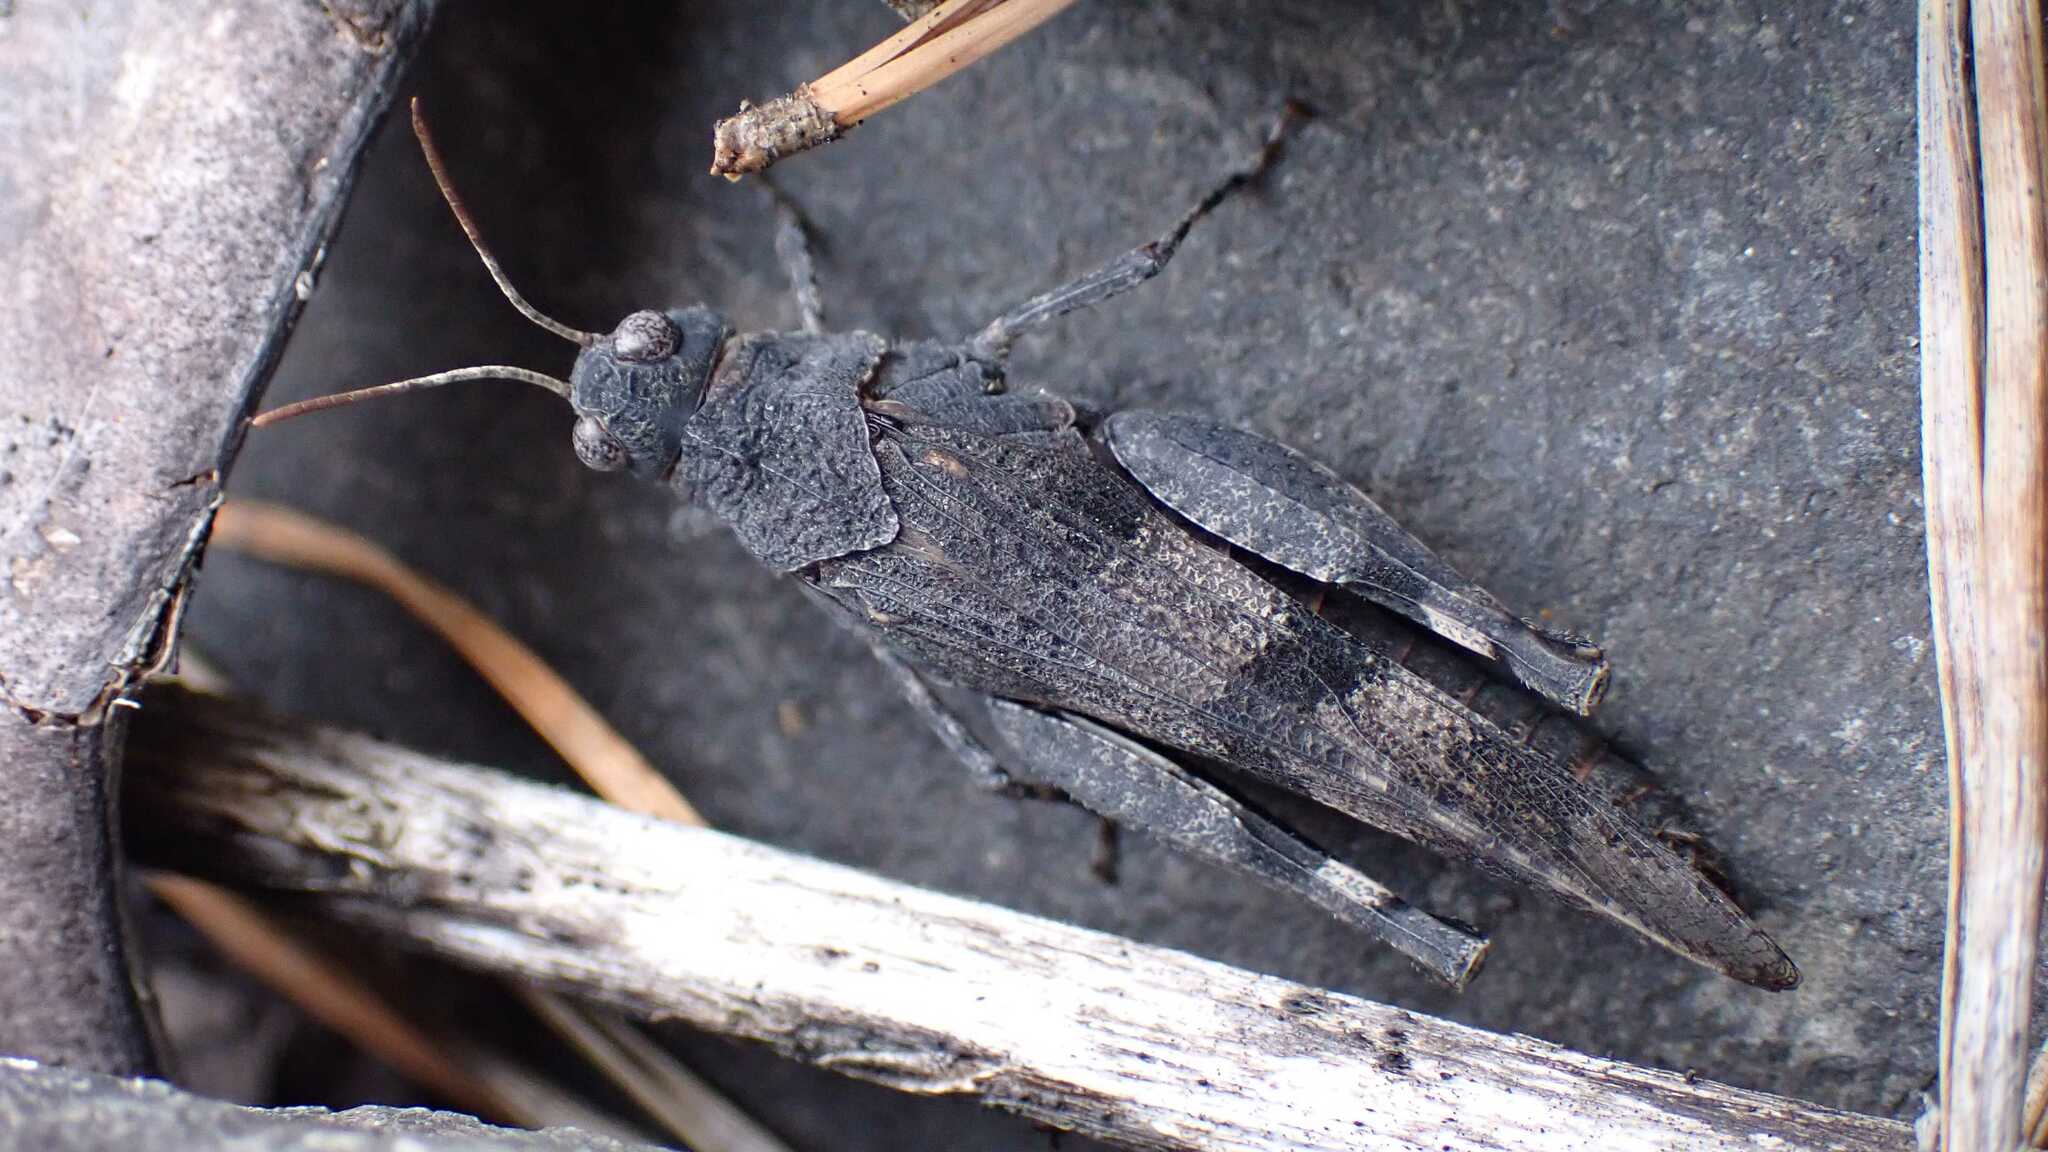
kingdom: Animalia
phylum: Arthropoda
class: Insecta
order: Orthoptera
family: Acrididae
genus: Oedipoda
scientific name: Oedipoda caerulescens
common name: Blue-winged grasshopper
